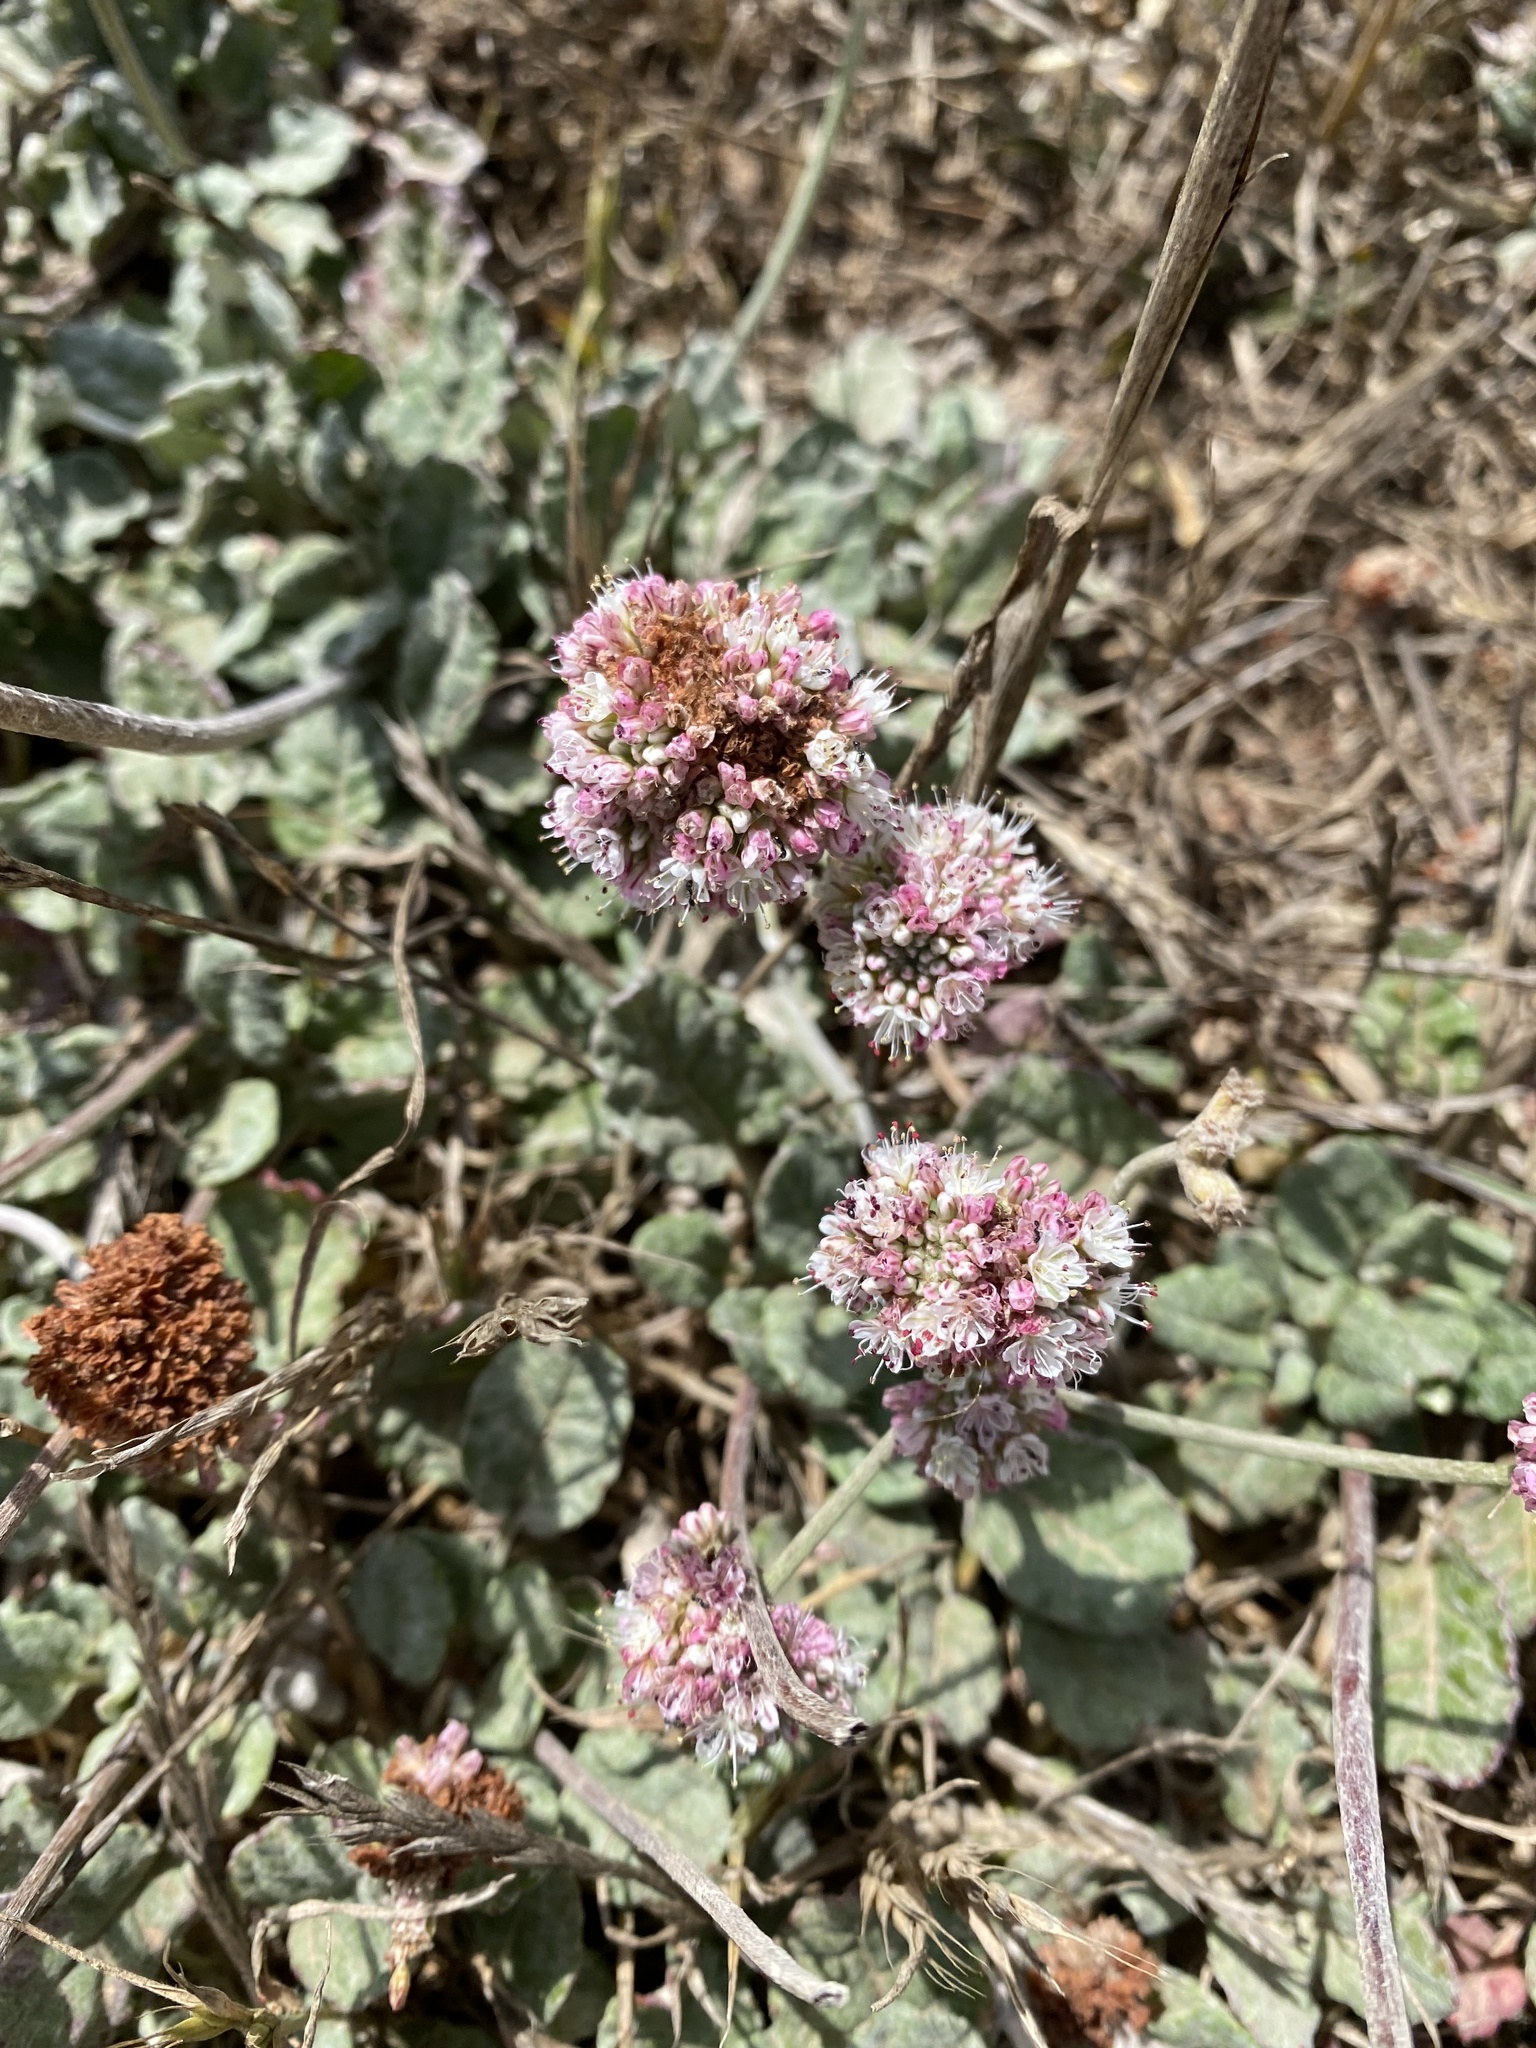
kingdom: Plantae
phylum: Tracheophyta
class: Magnoliopsida
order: Caryophyllales
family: Polygonaceae
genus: Eriogonum
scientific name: Eriogonum latifolium
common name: Seaside wild buckwheat
